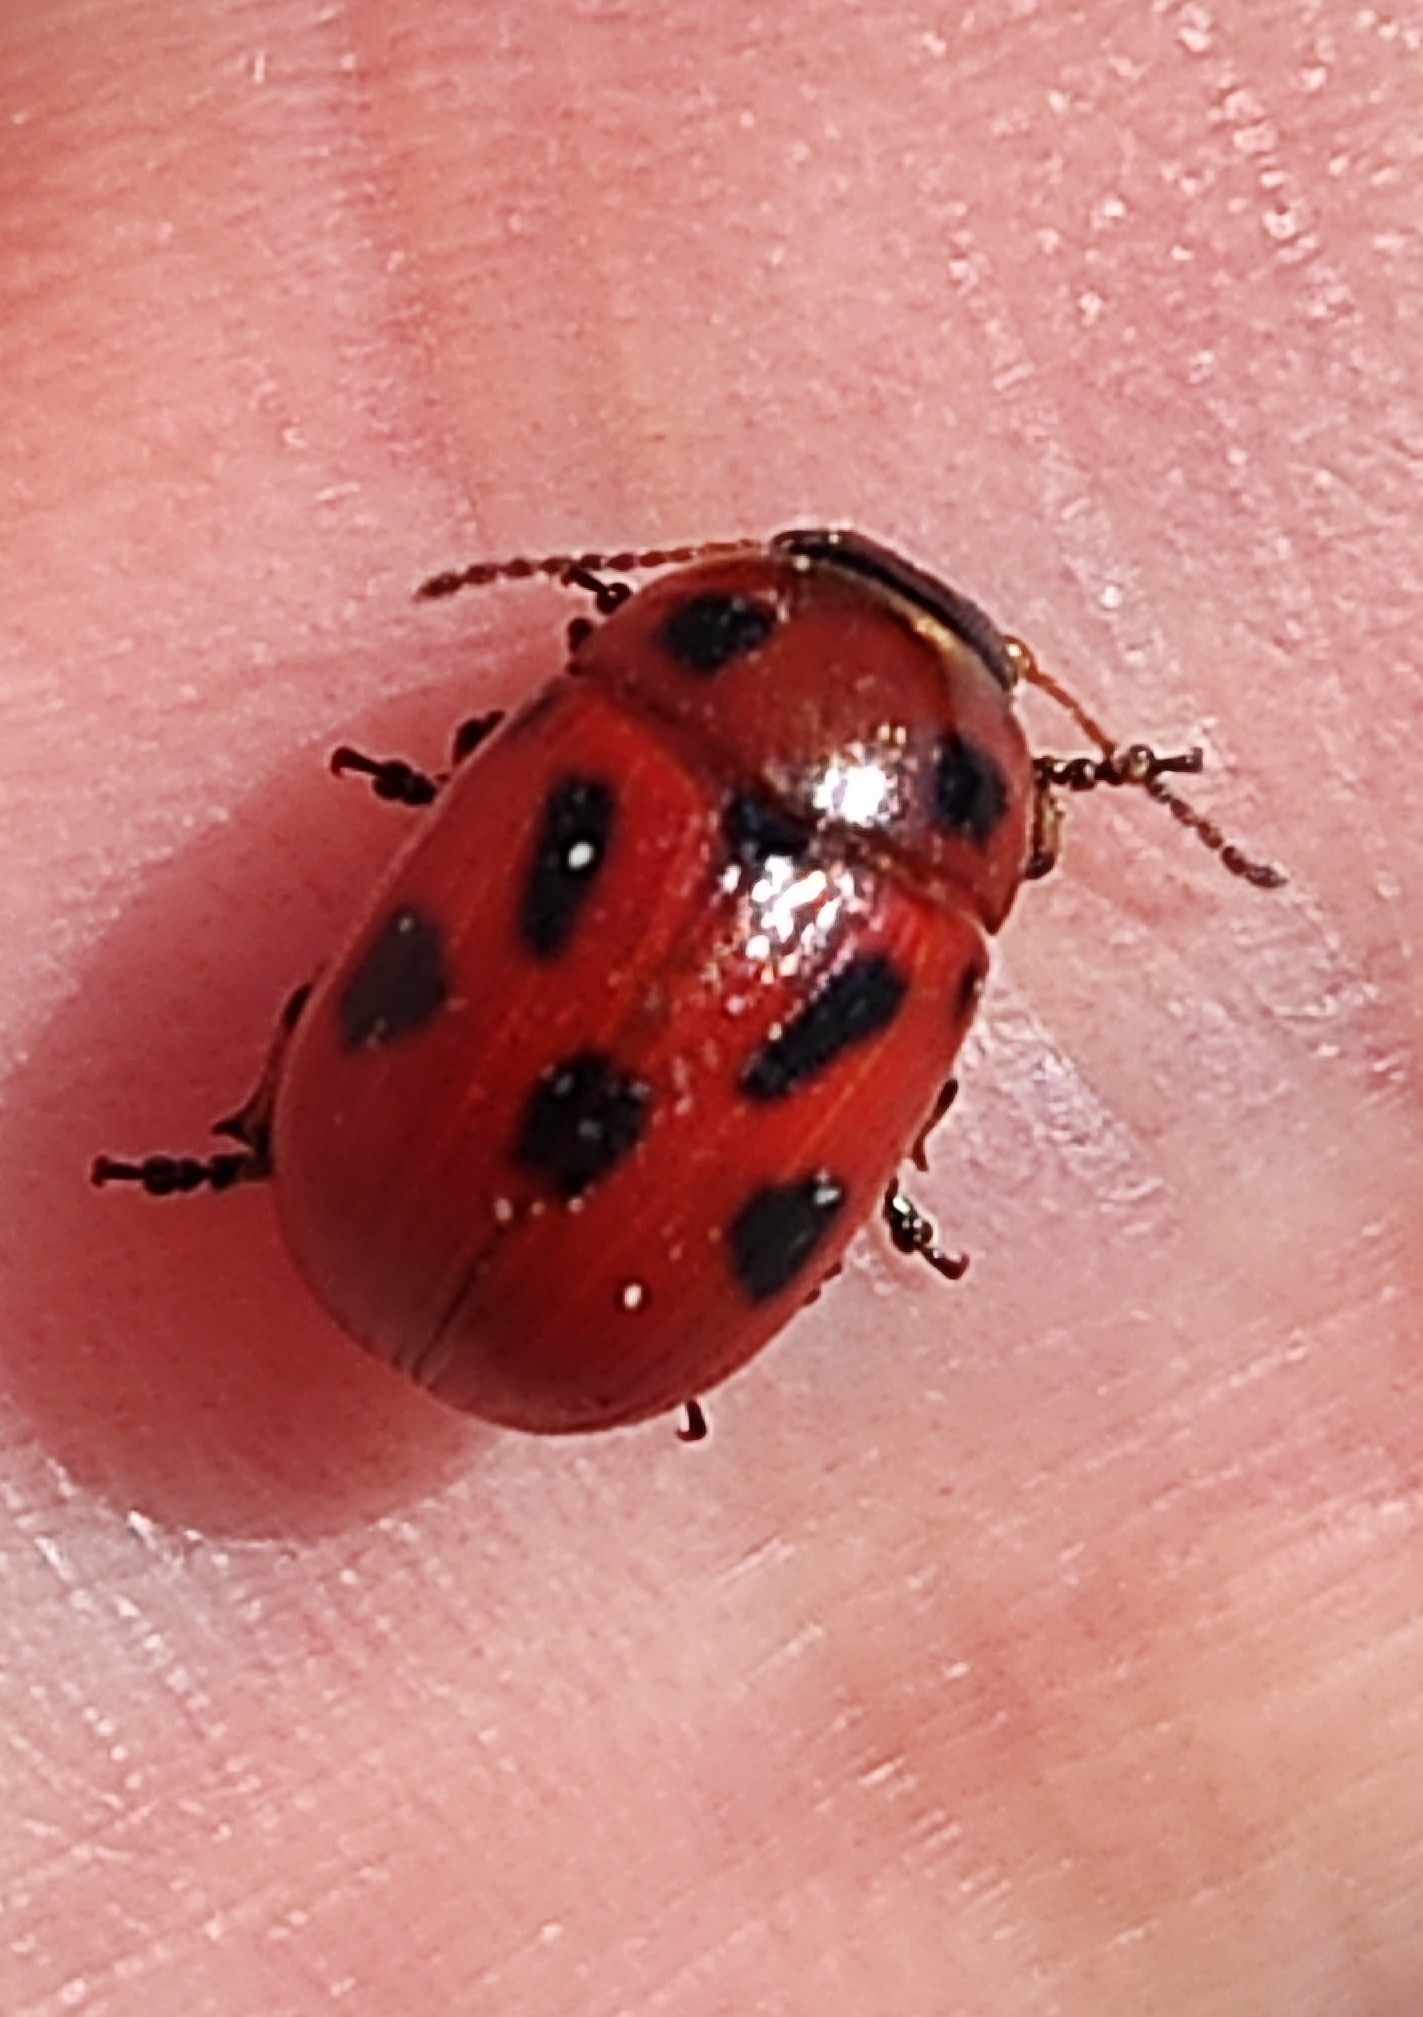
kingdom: Animalia
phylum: Arthropoda
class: Insecta
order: Coleoptera
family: Chrysomelidae
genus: Gonioctena
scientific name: Gonioctena fornicata
